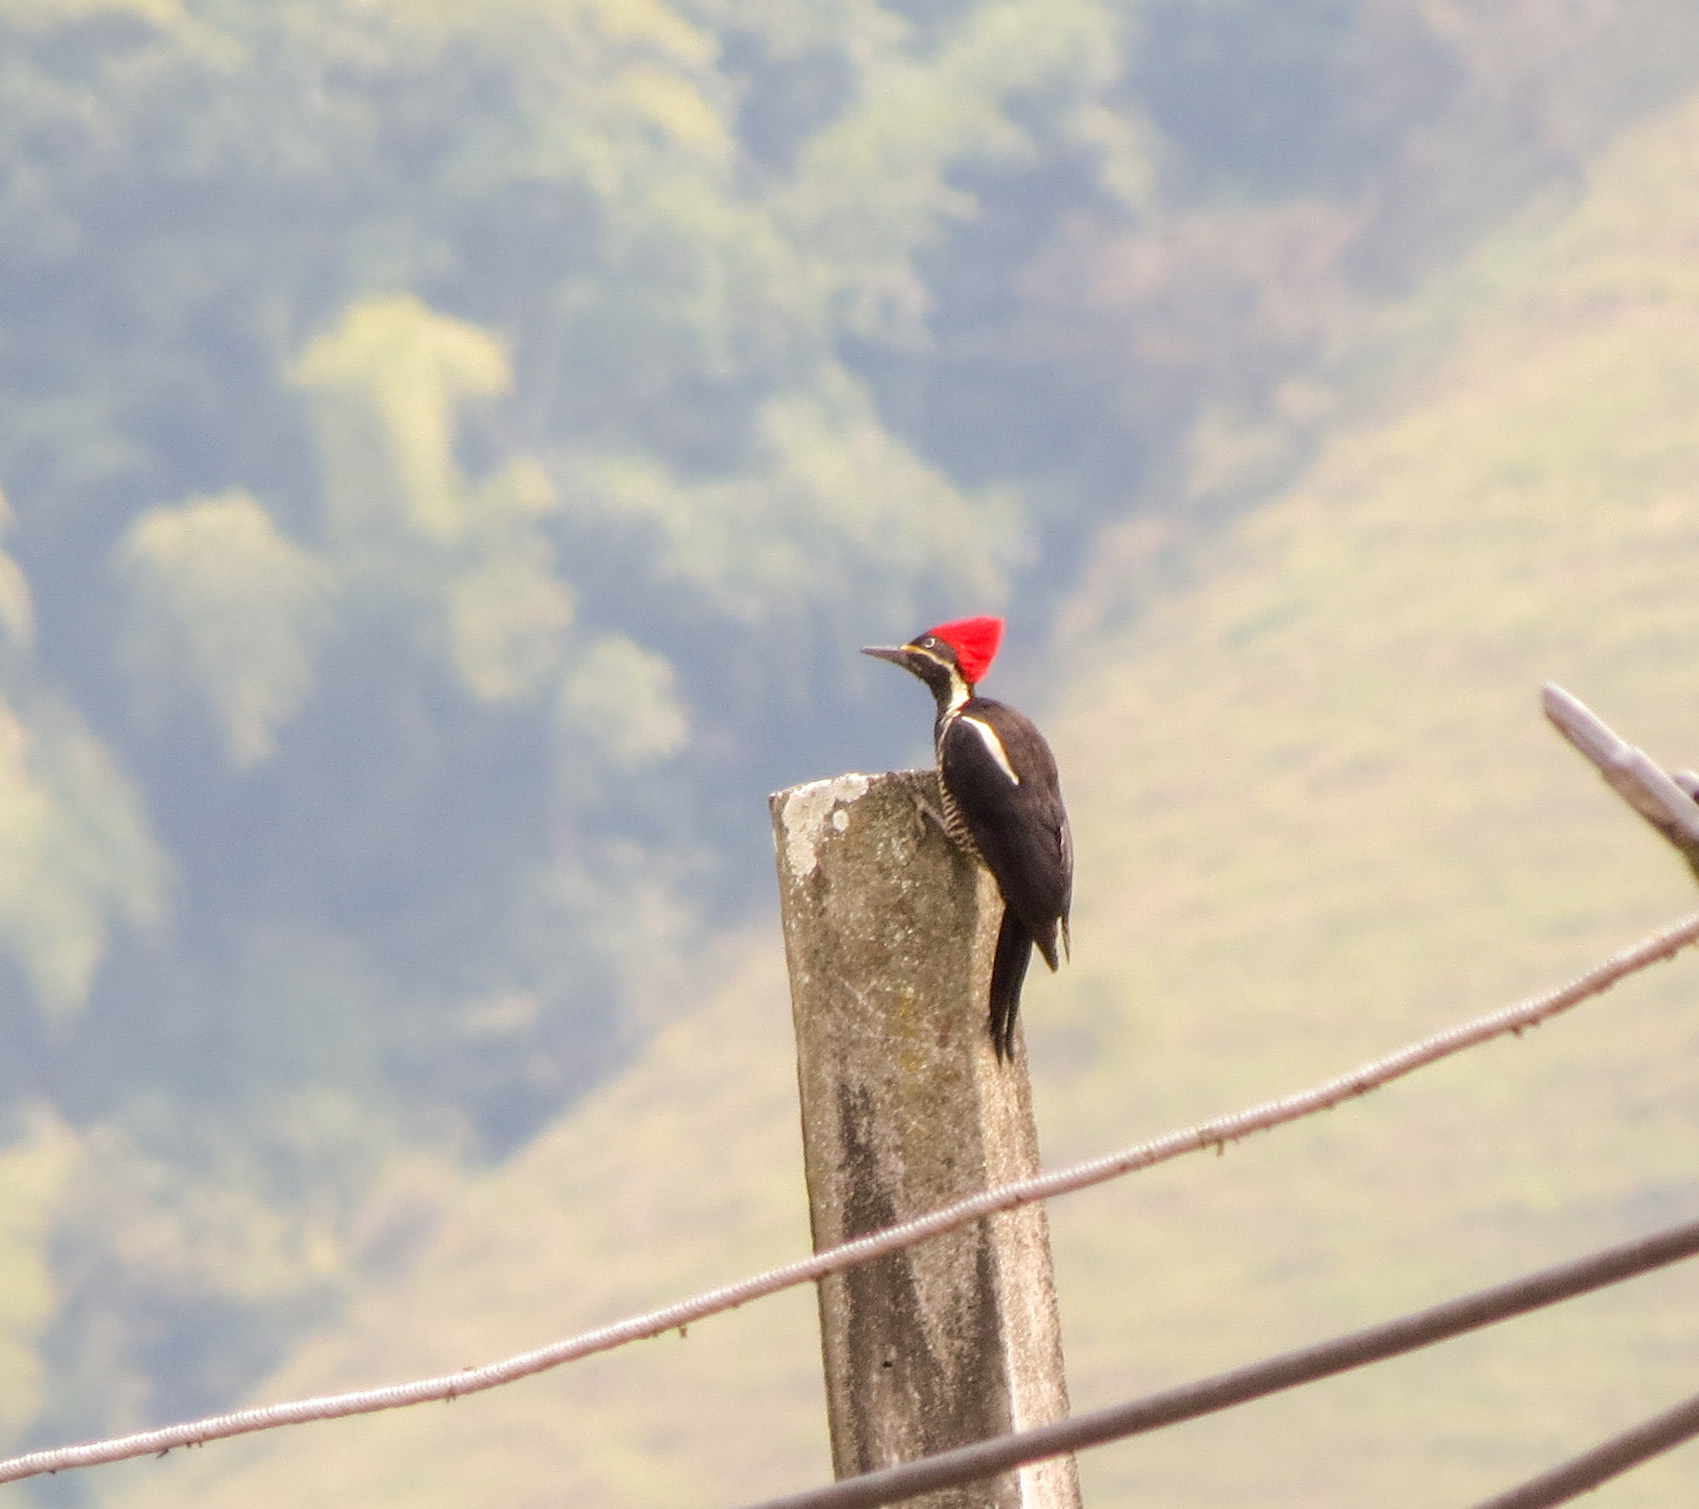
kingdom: Animalia
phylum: Chordata
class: Aves
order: Piciformes
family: Picidae
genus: Dryocopus
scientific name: Dryocopus lineatus
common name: Lineated woodpecker
